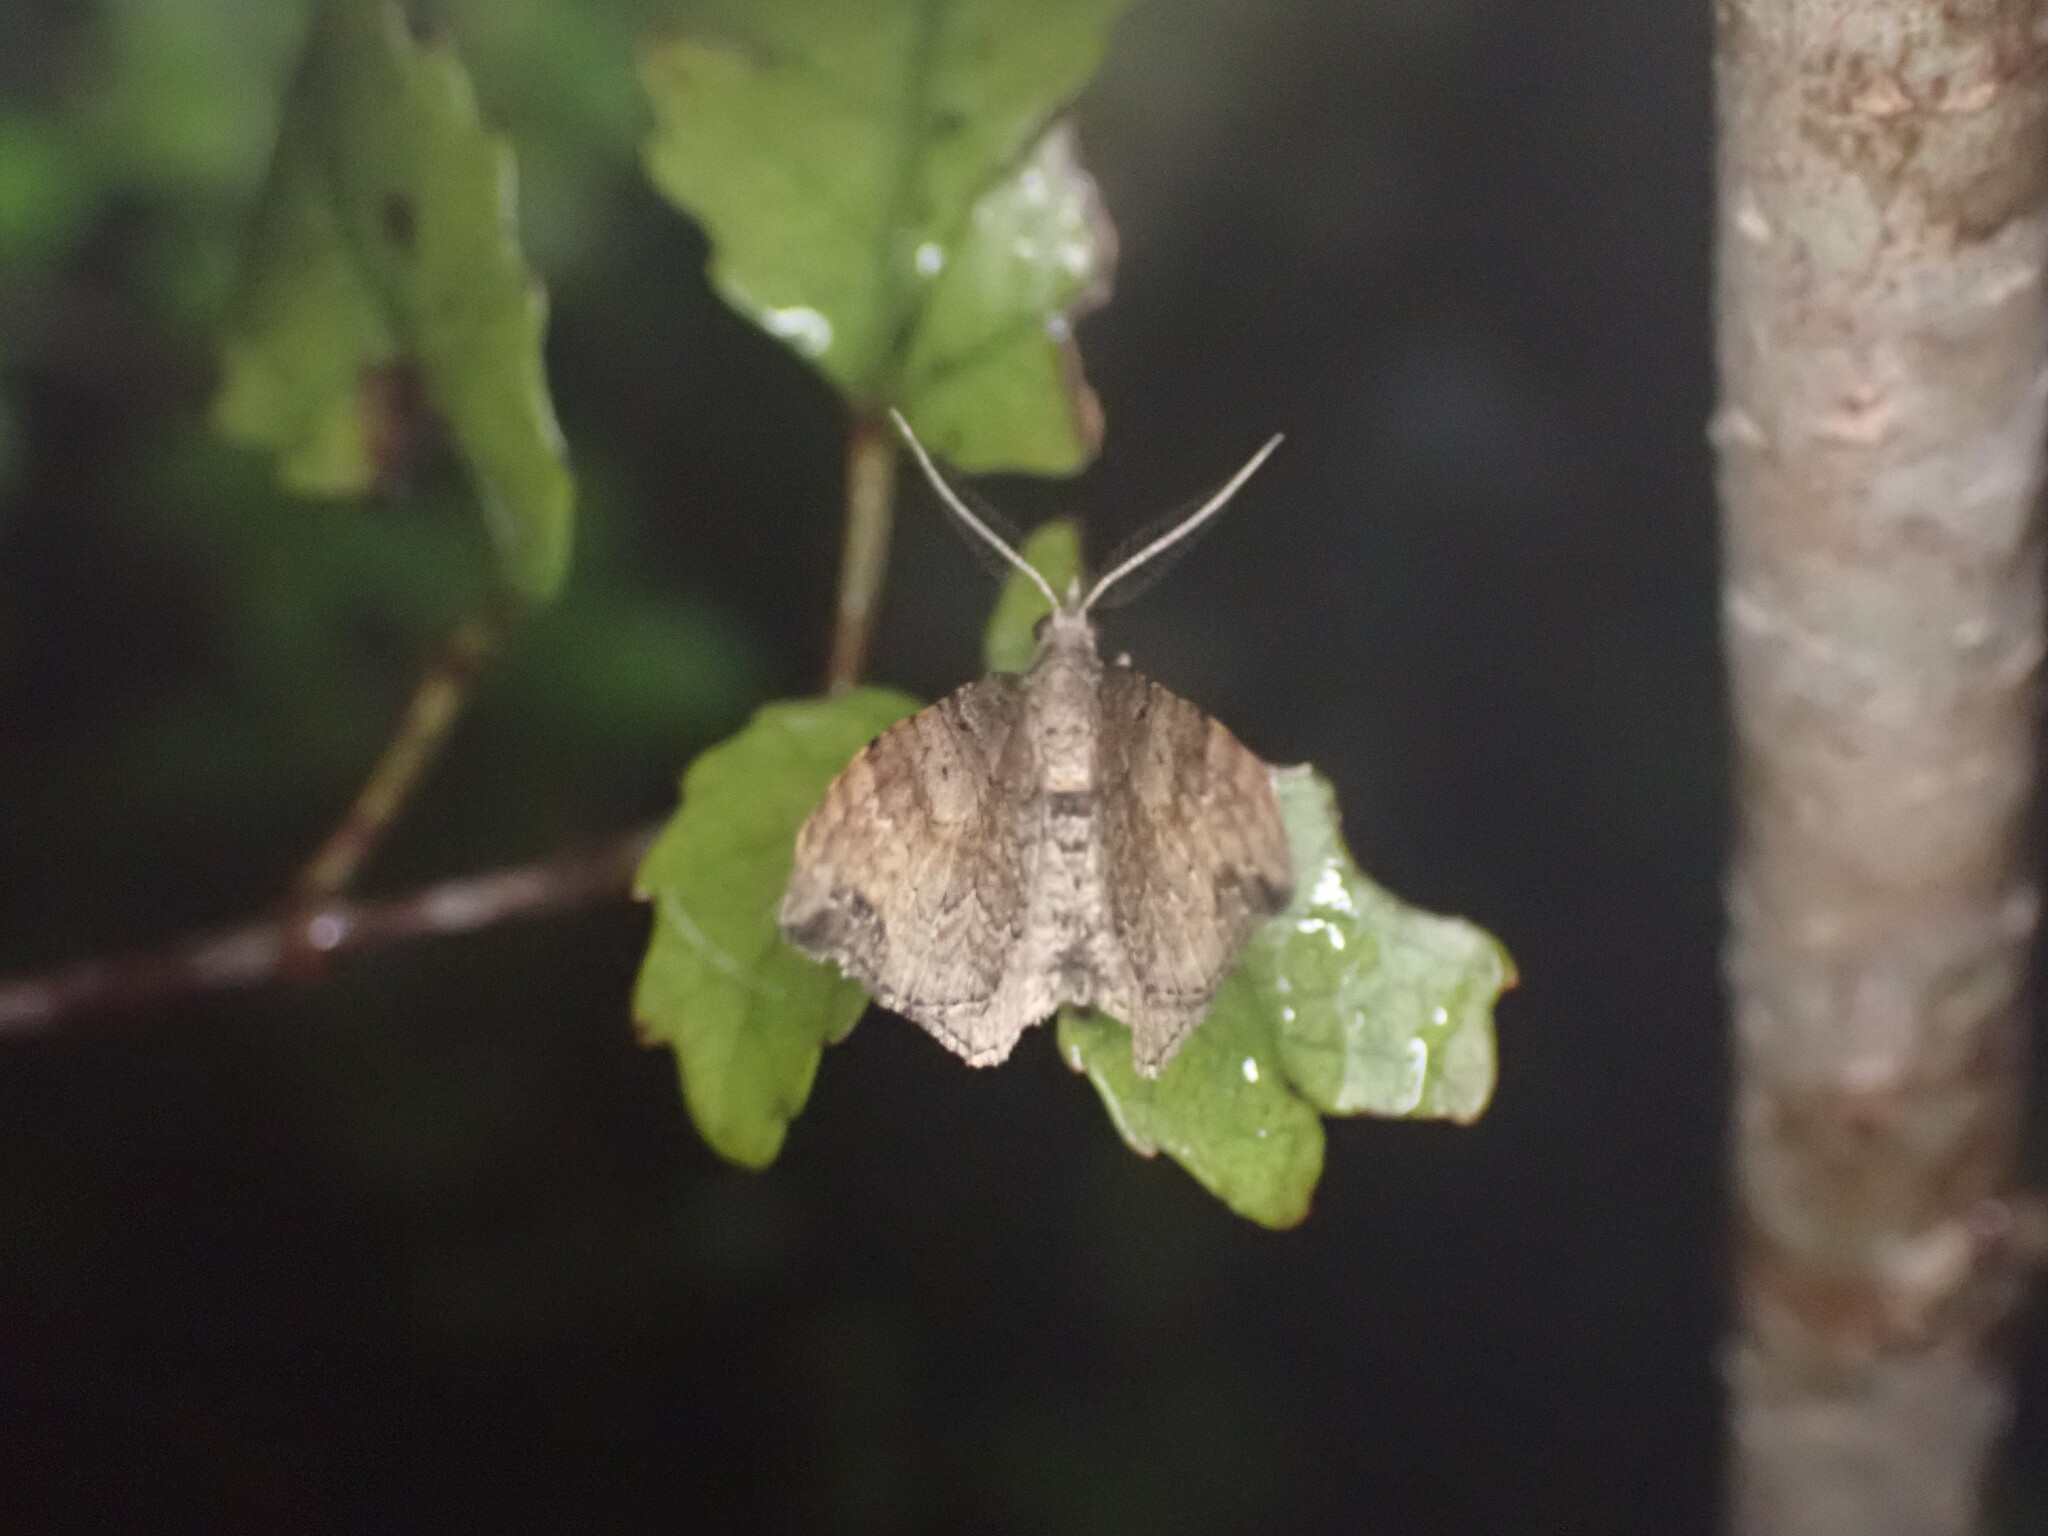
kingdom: Animalia
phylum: Arthropoda
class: Insecta
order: Lepidoptera
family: Geometridae
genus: Homodotis
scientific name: Homodotis megaspilata
